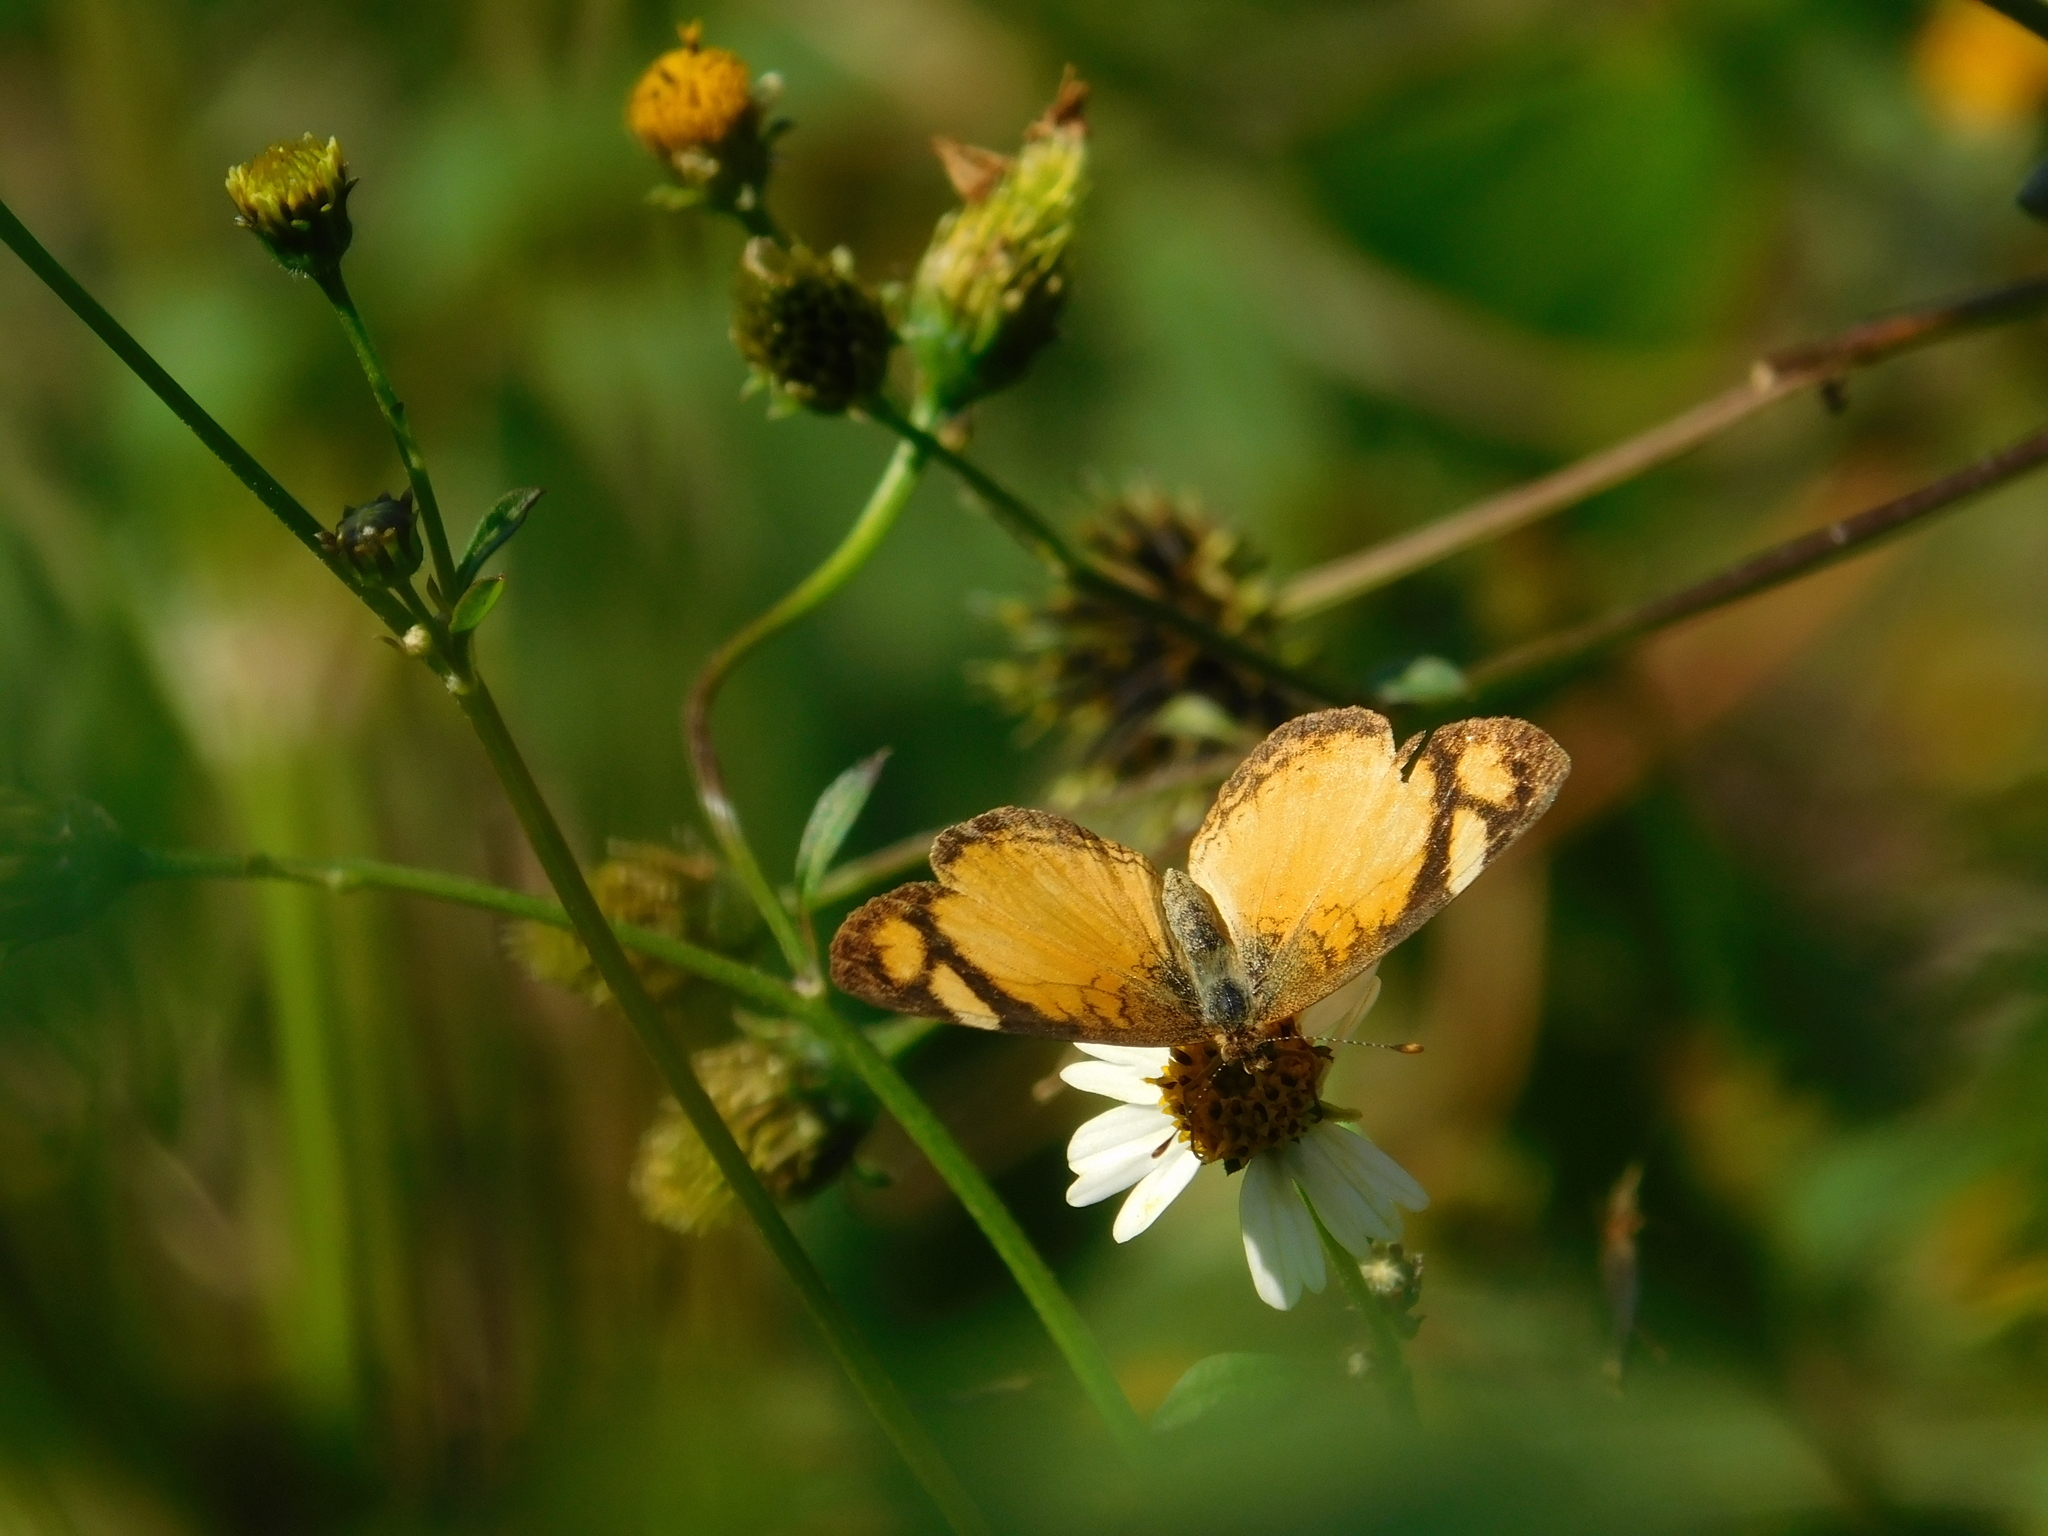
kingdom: Animalia
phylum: Arthropoda
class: Insecta
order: Lepidoptera
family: Nymphalidae
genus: Tegosa
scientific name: Tegosa claudina
